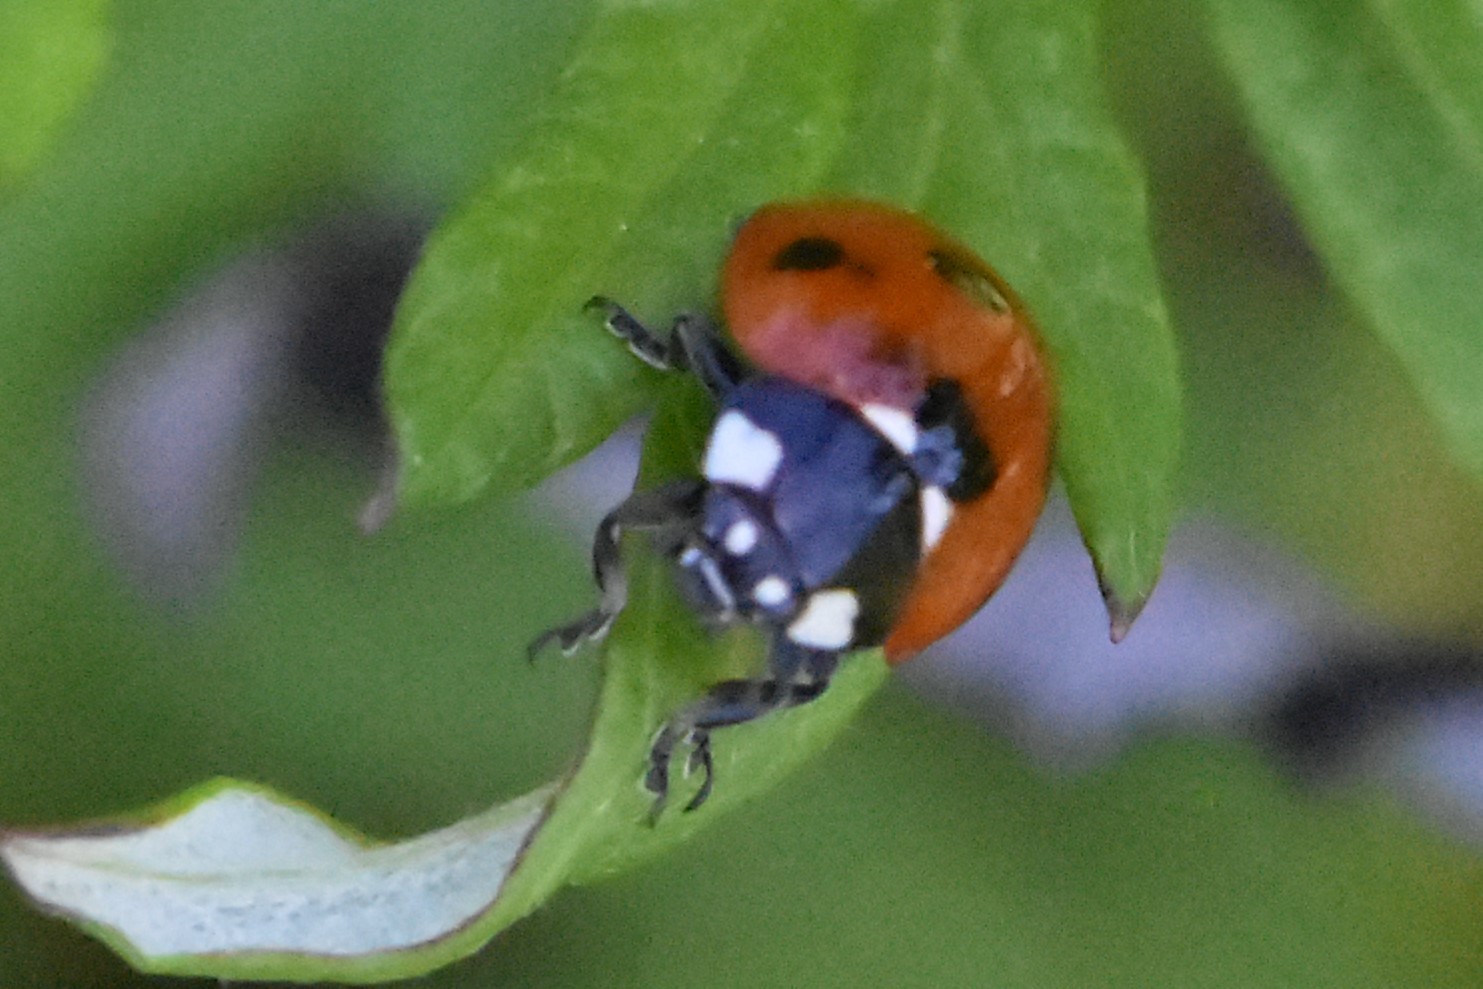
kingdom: Animalia
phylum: Arthropoda
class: Insecta
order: Coleoptera
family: Coccinellidae
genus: Coccinella
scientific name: Coccinella septempunctata
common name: Sevenspotted lady beetle
